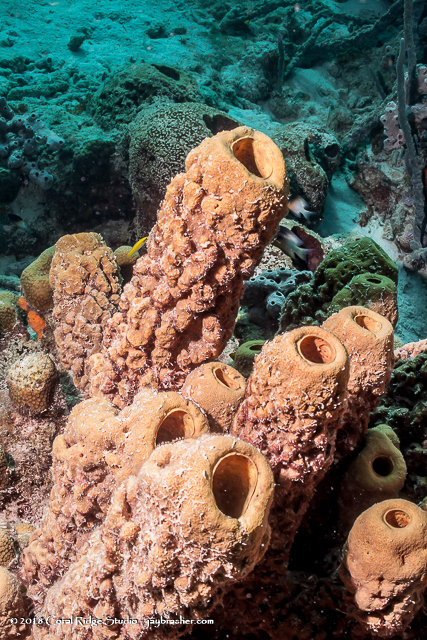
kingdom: Animalia
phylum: Porifera
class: Demospongiae
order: Verongiida
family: Aplysinidae
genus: Aplysina
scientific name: Aplysina archeri
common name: Stove-pipe sponge
